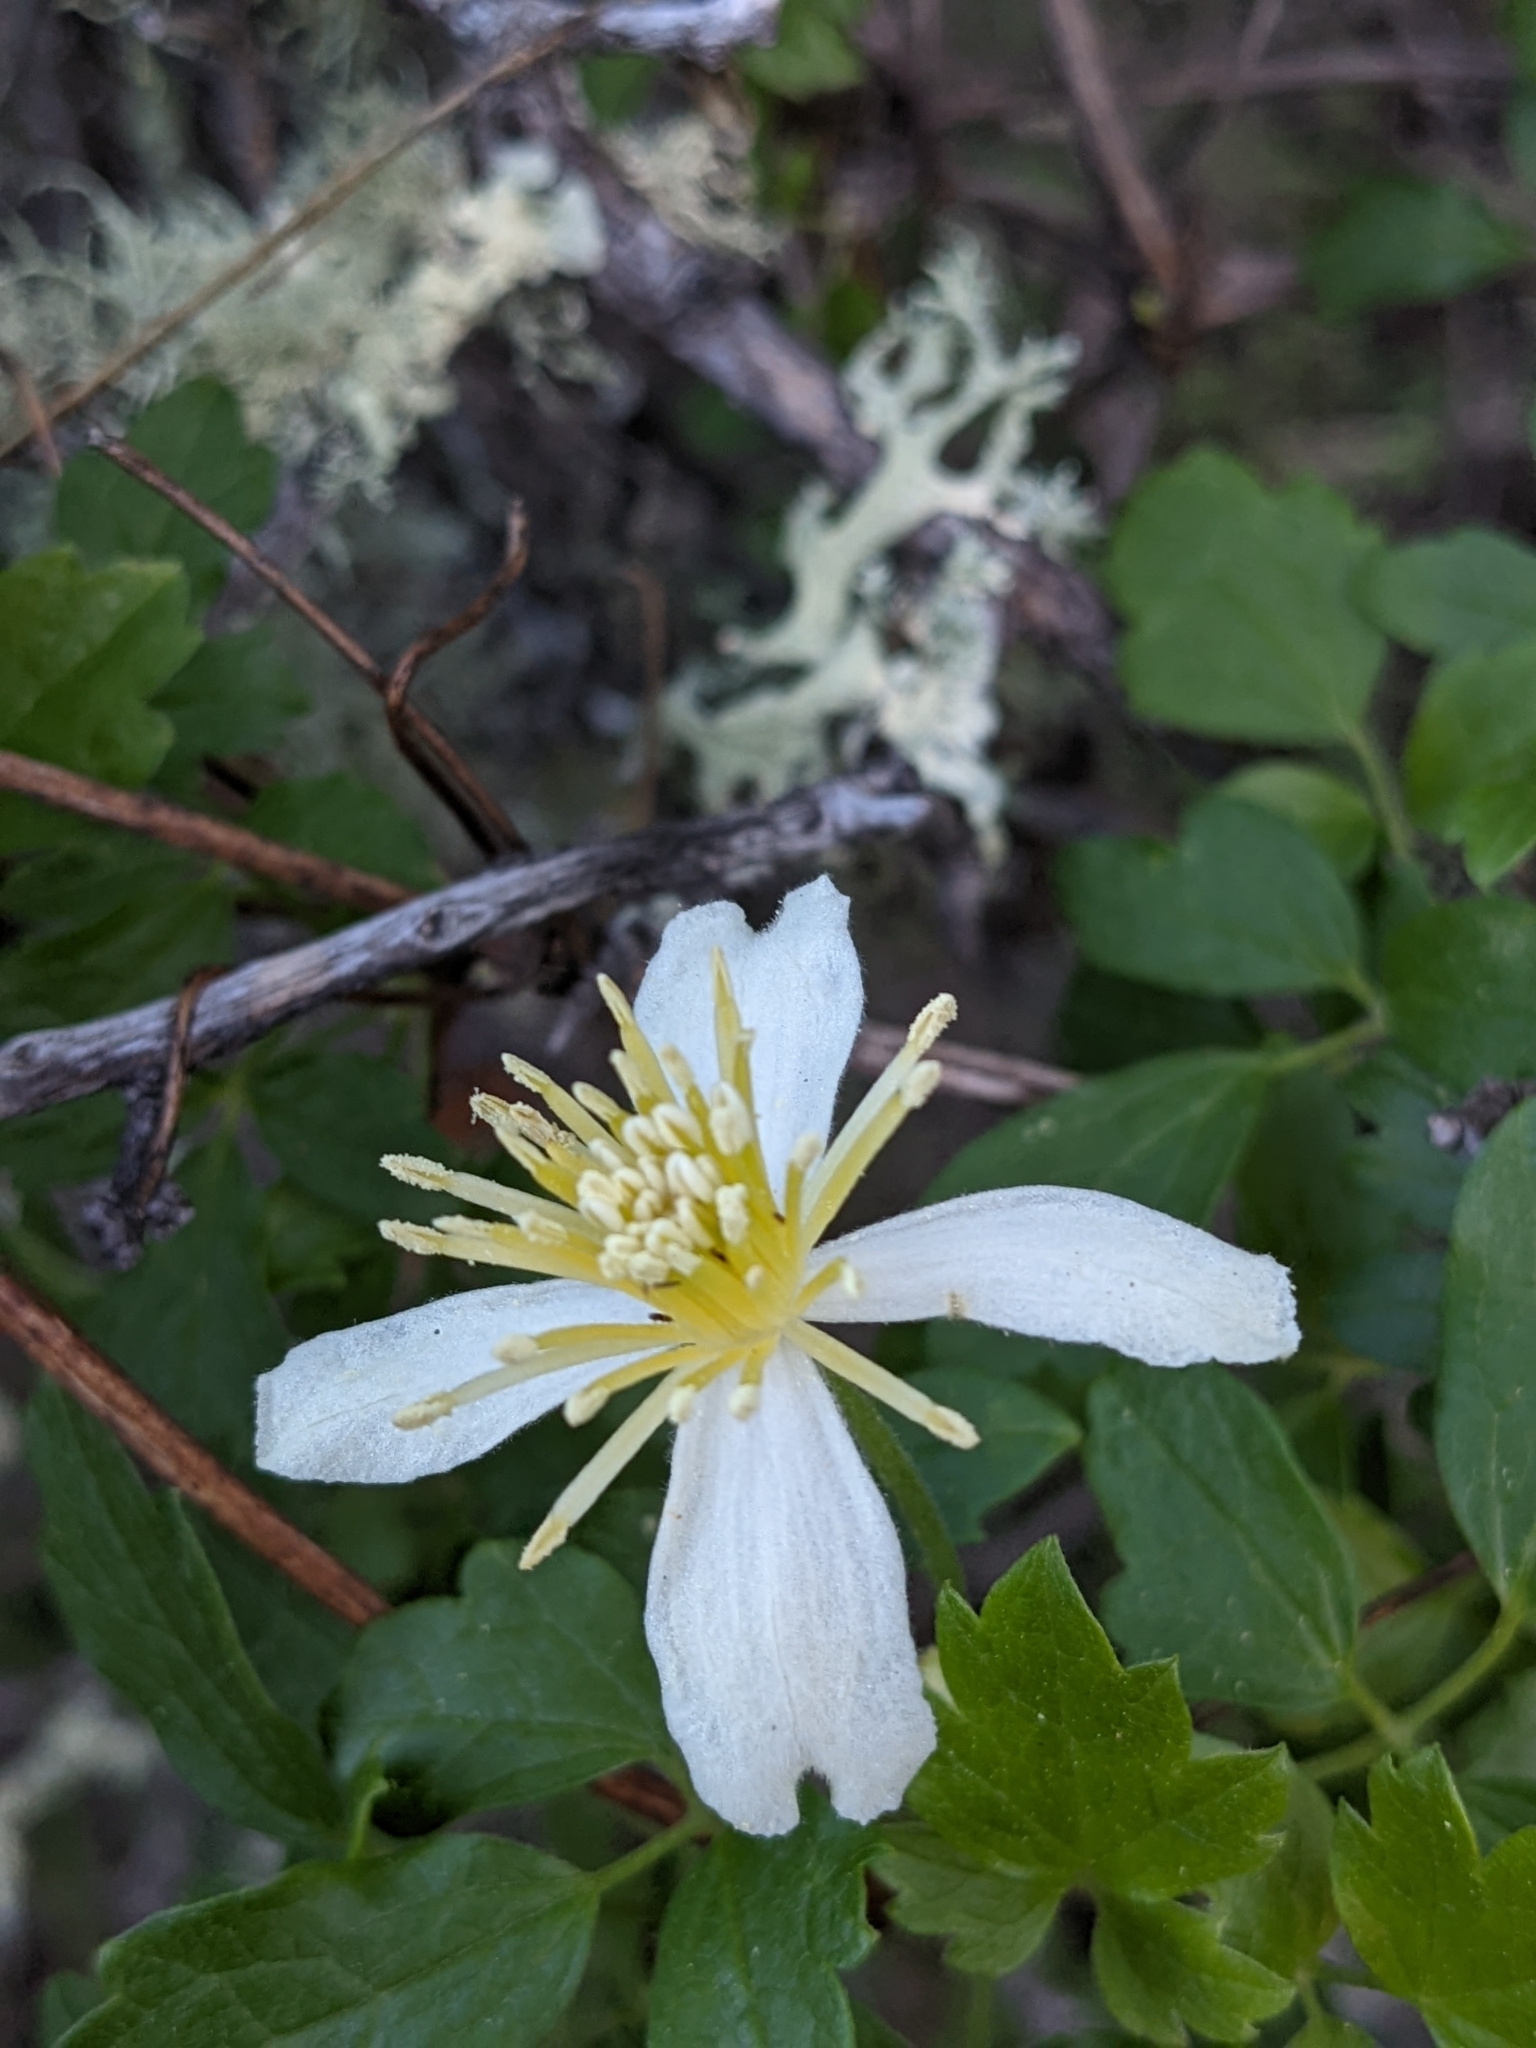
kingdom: Plantae
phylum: Tracheophyta
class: Magnoliopsida
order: Ranunculales
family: Ranunculaceae
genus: Clematis
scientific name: Clematis lasiantha
